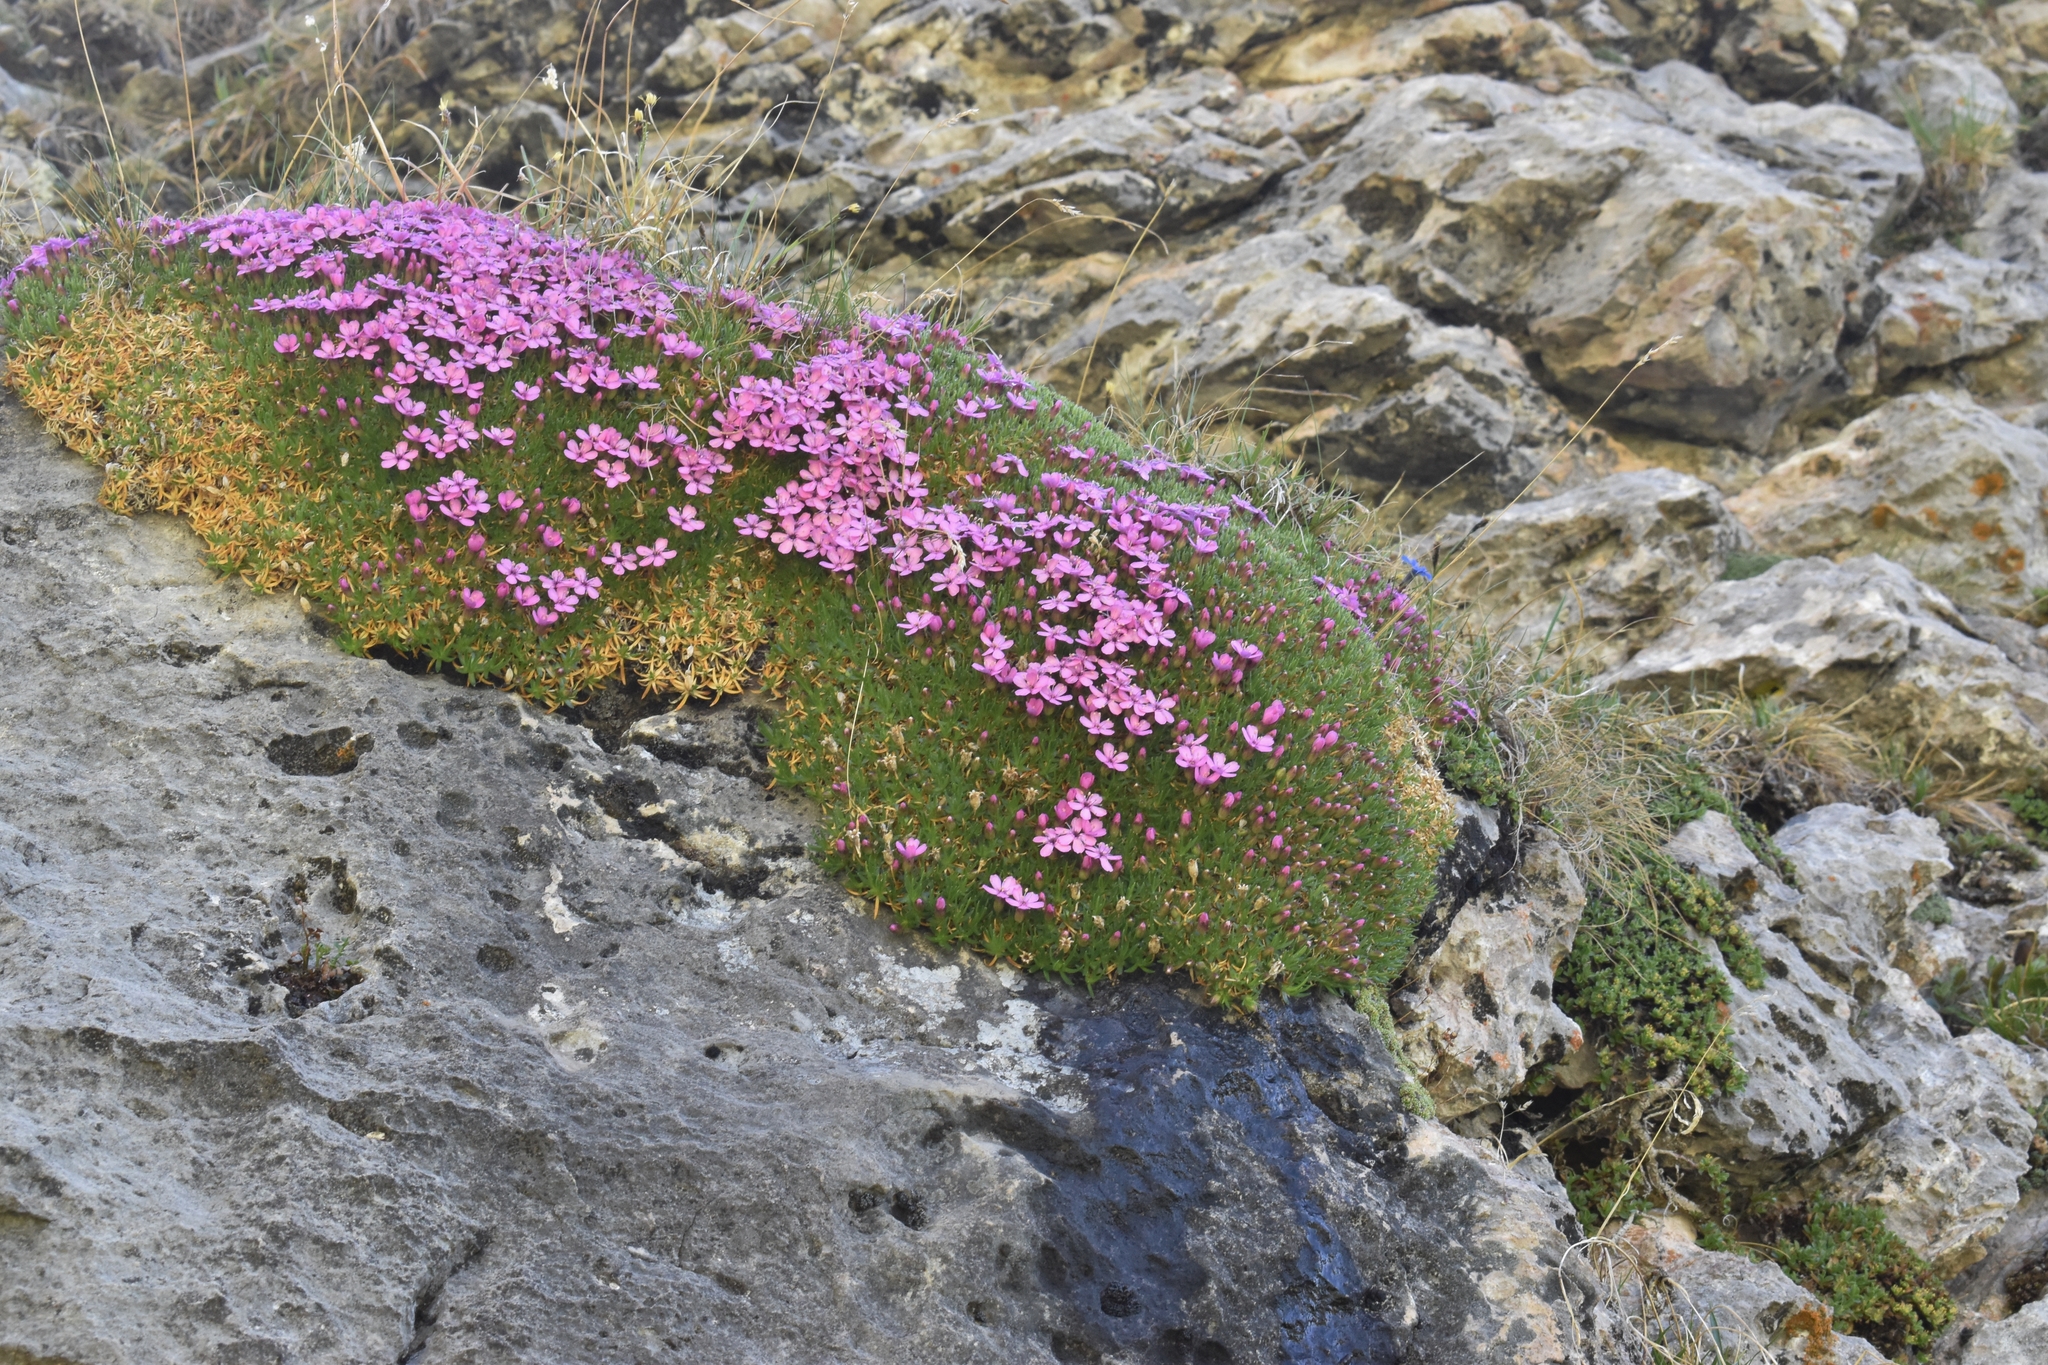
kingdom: Plantae
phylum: Tracheophyta
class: Magnoliopsida
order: Caryophyllales
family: Caryophyllaceae
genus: Silene
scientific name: Silene acaulis
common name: Moss campion
